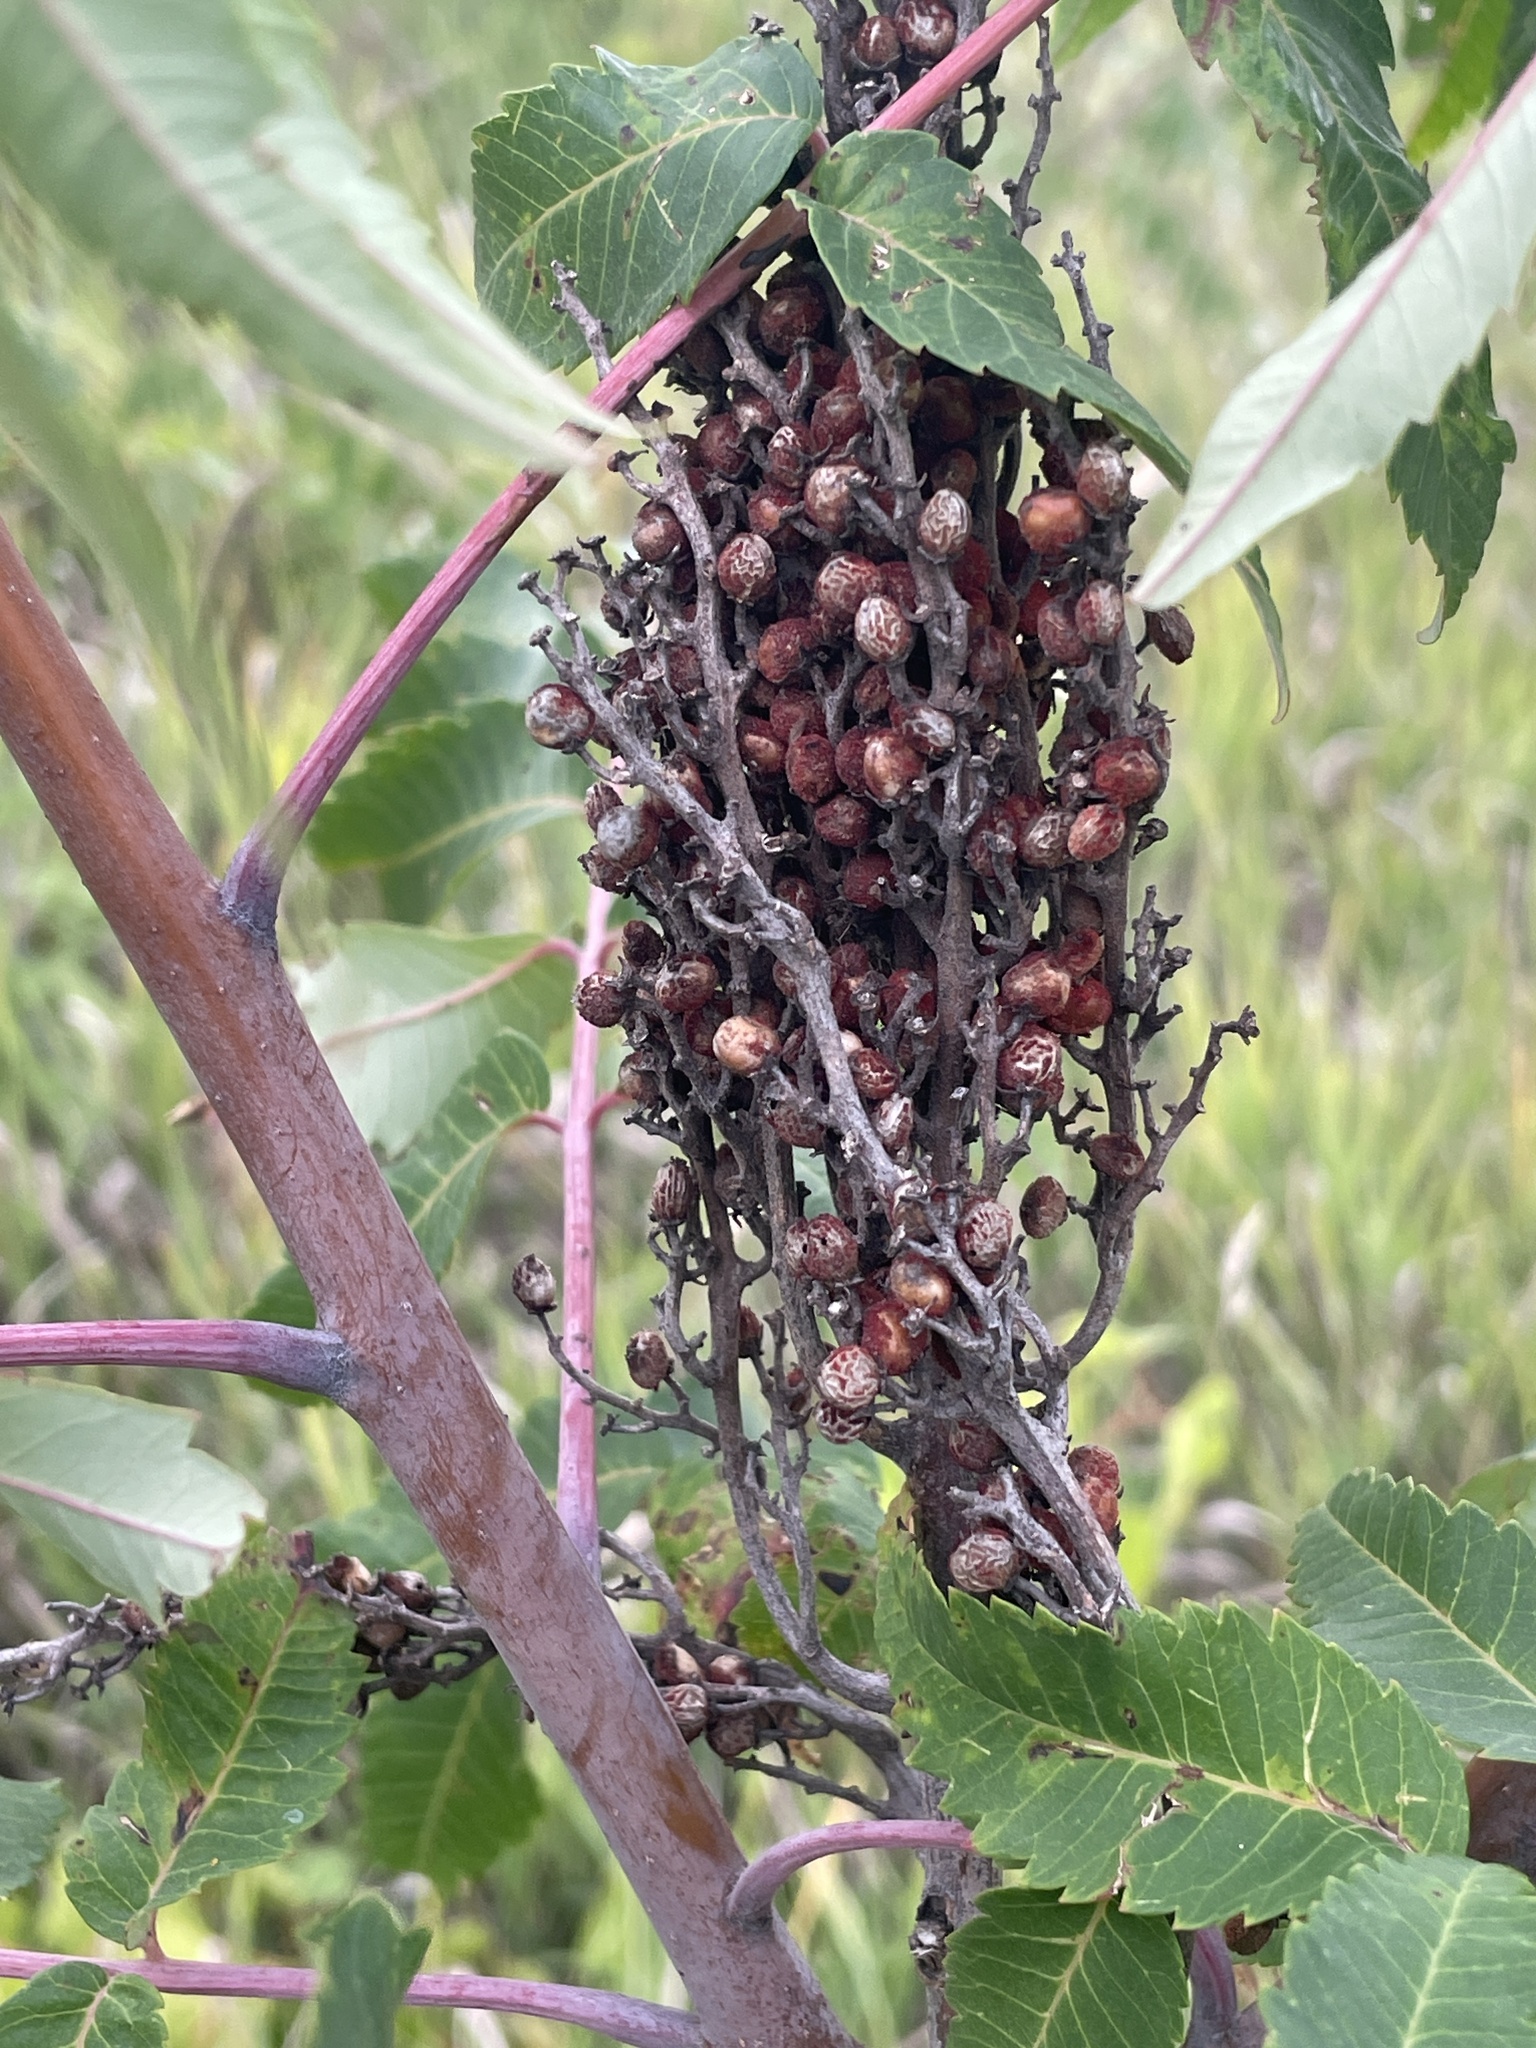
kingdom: Plantae
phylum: Tracheophyta
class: Magnoliopsida
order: Sapindales
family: Anacardiaceae
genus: Rhus
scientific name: Rhus glabra
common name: Scarlet sumac
